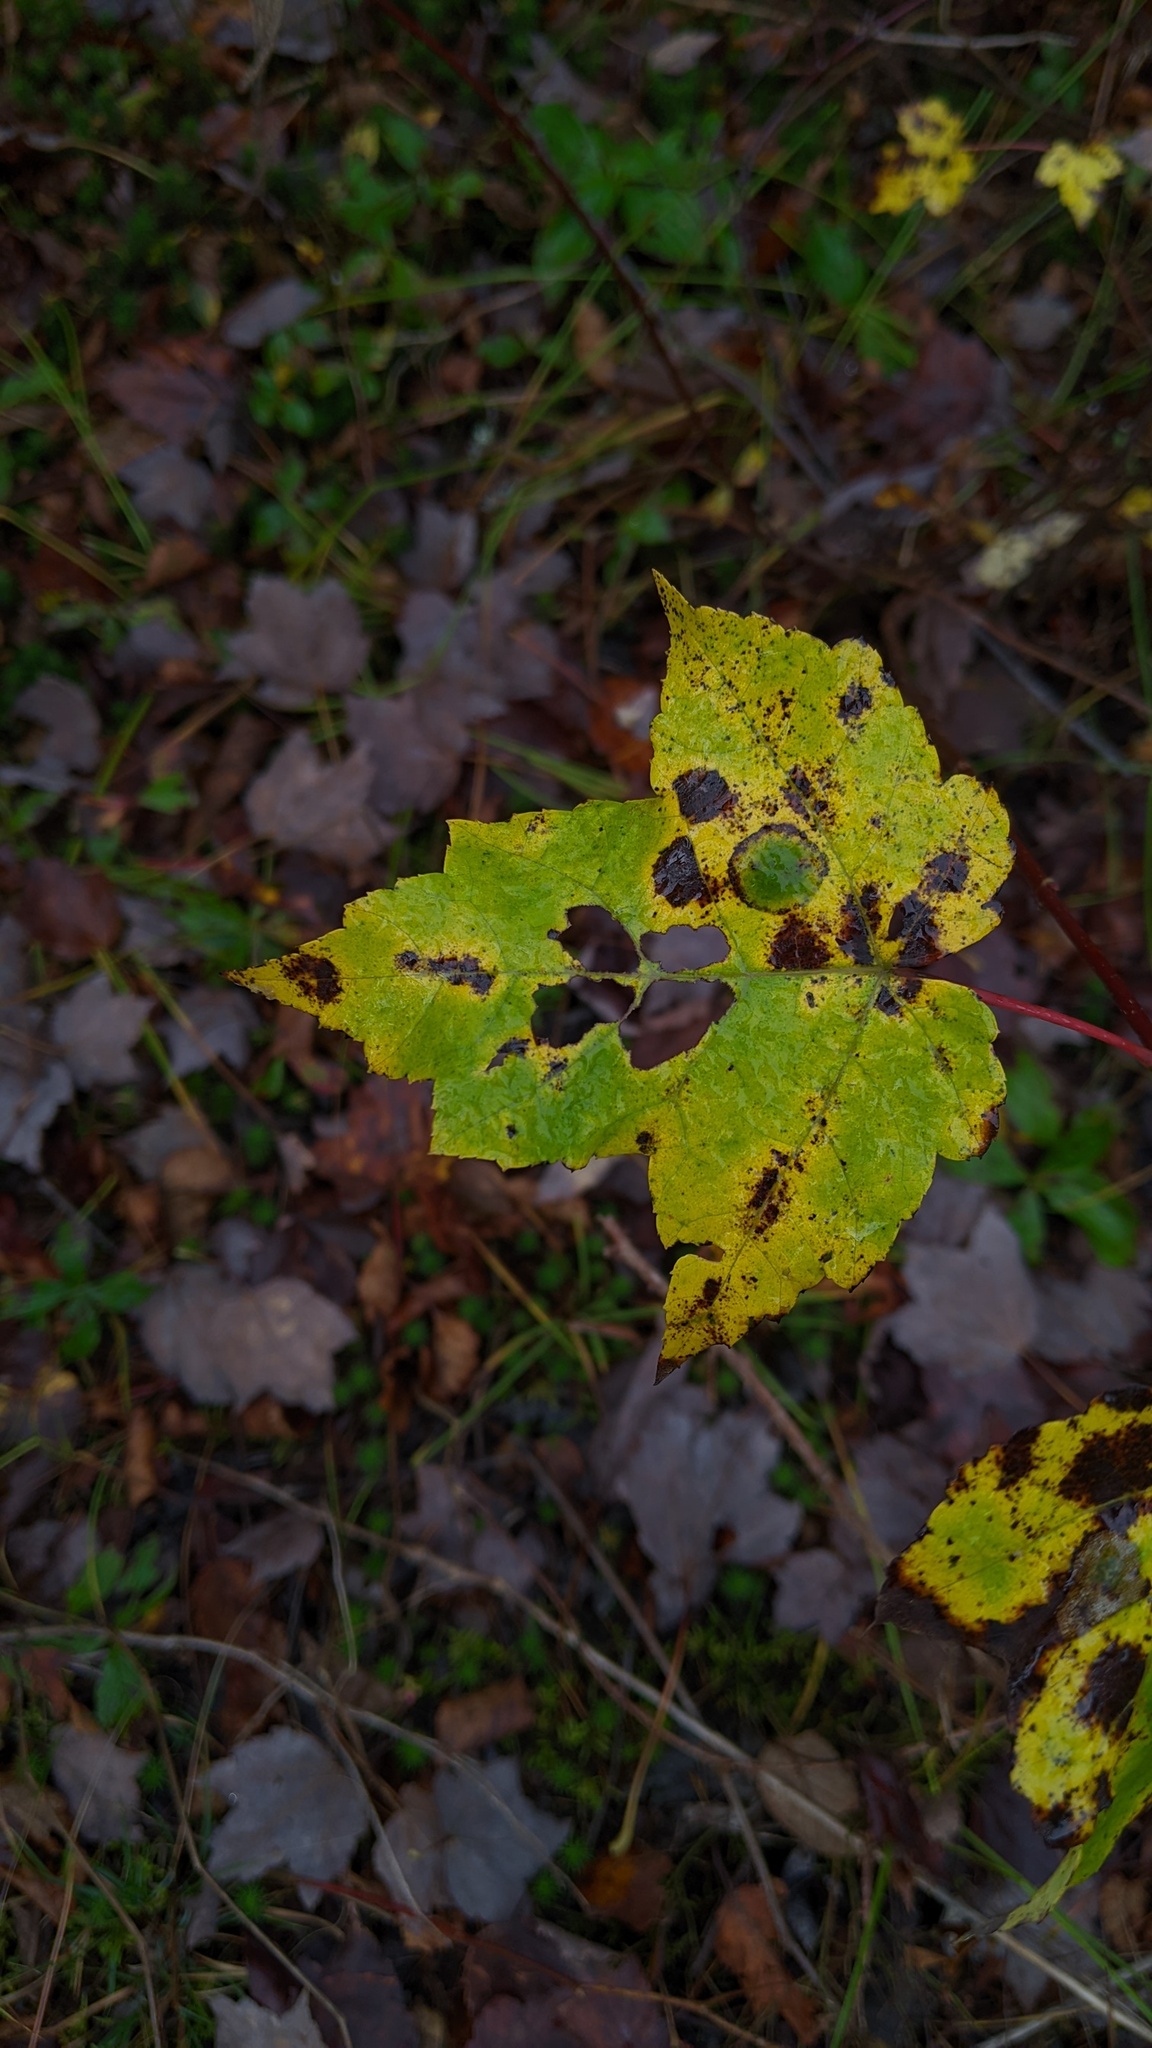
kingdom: Plantae
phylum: Tracheophyta
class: Magnoliopsida
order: Sapindales
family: Sapindaceae
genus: Acer
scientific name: Acer spicatum
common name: Mountain maple
